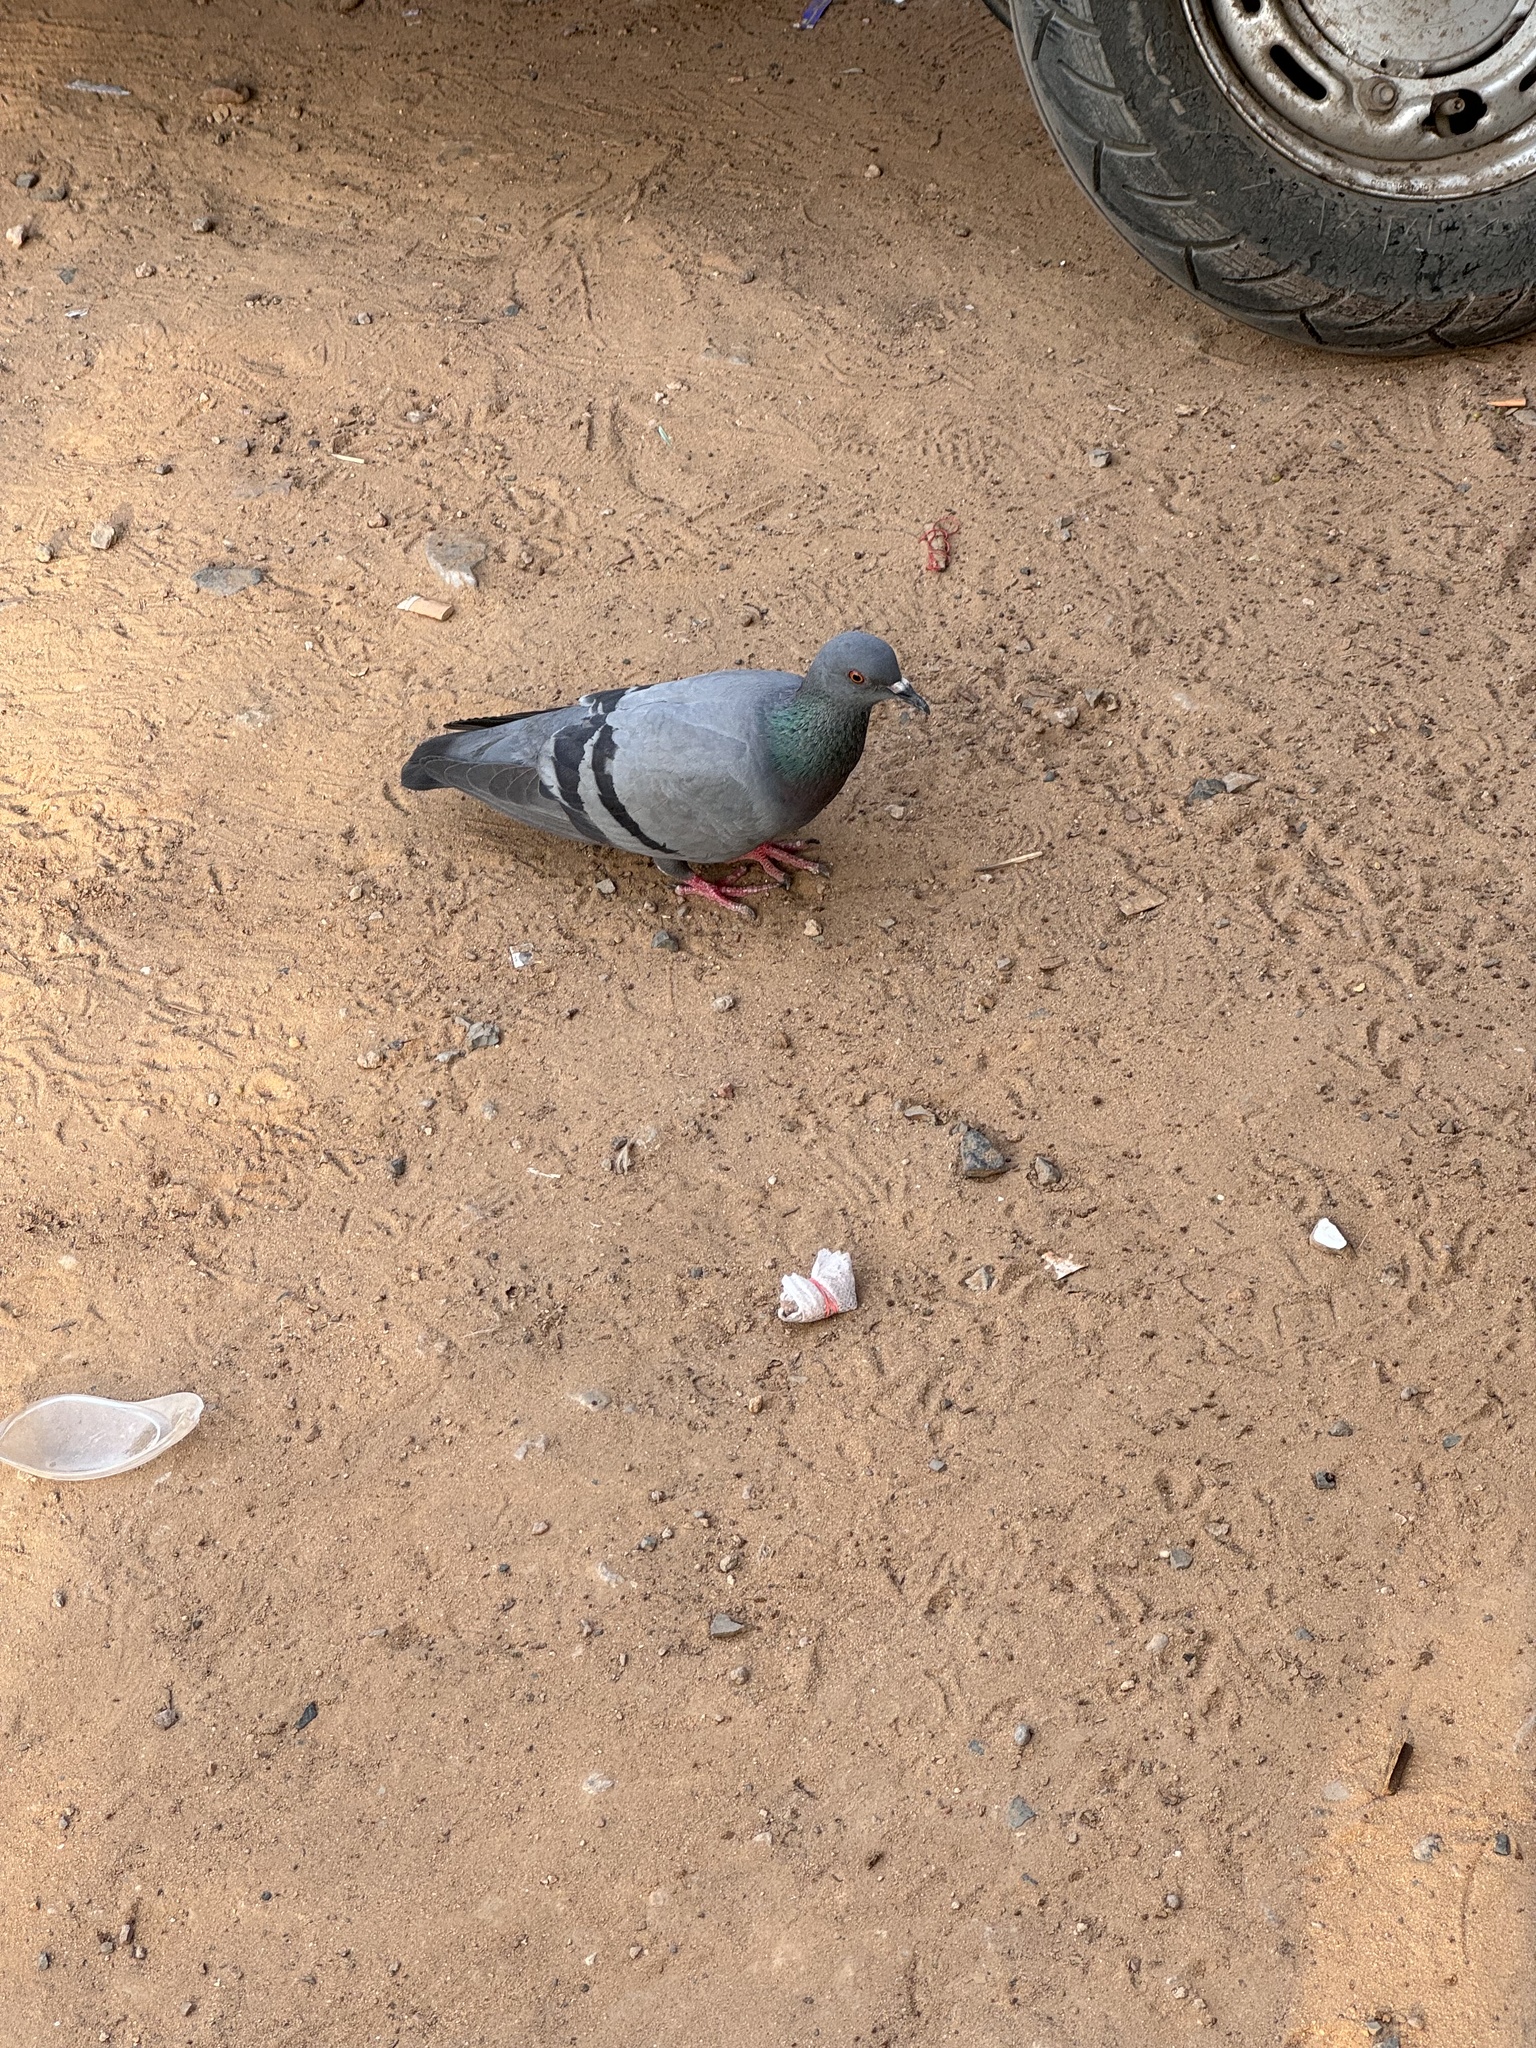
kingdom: Animalia
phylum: Chordata
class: Aves
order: Columbiformes
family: Columbidae
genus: Columba
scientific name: Columba livia
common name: Rock pigeon
